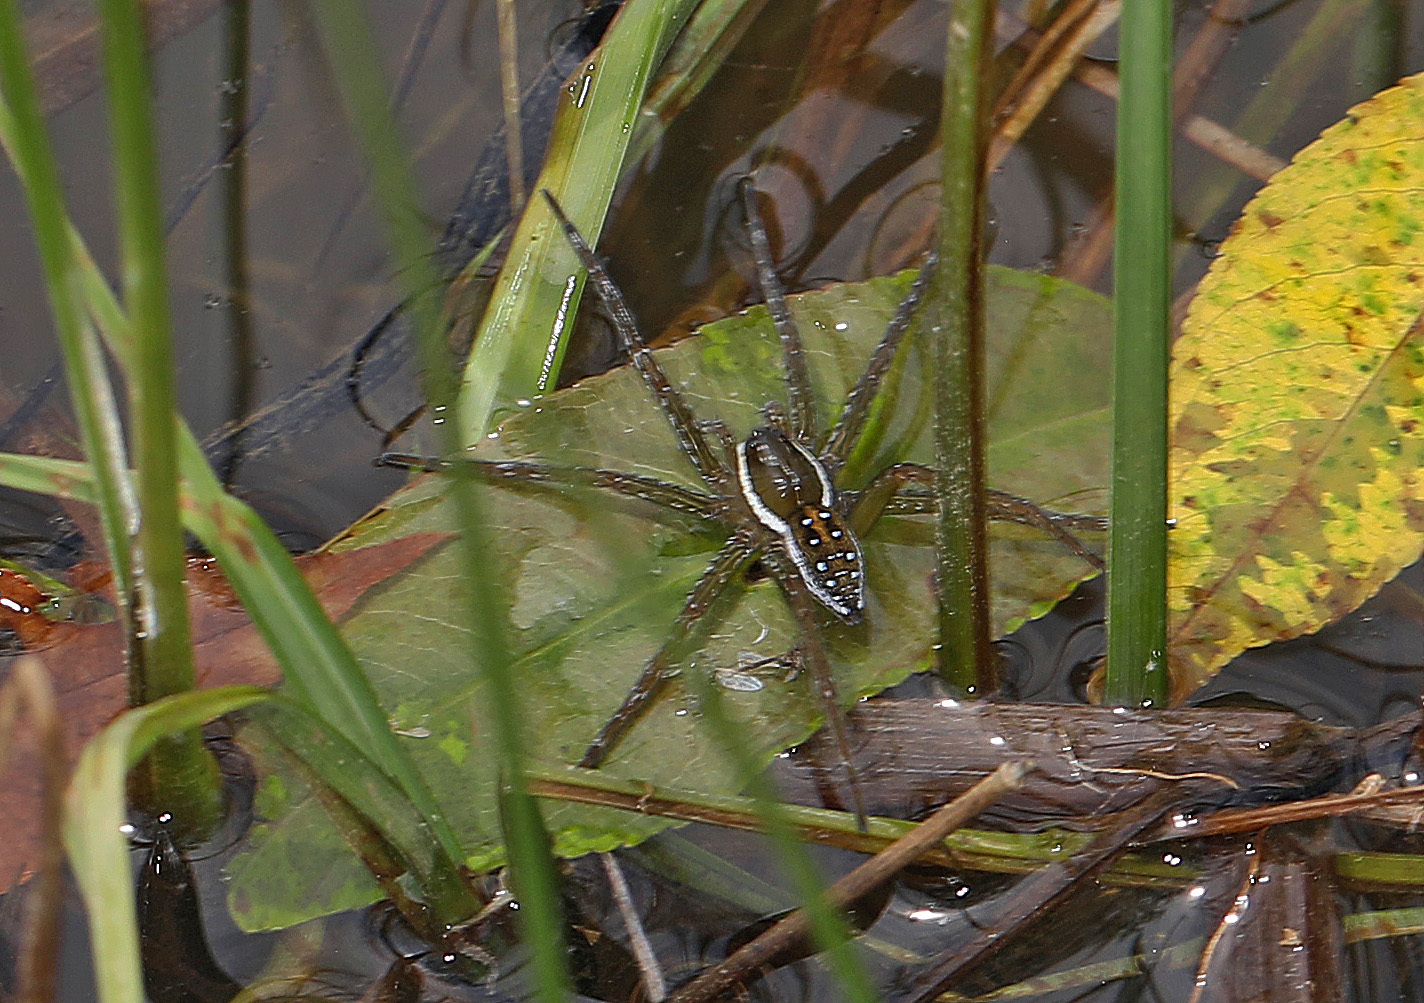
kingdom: Animalia
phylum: Arthropoda
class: Arachnida
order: Araneae
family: Pisauridae
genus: Dolomedes
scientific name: Dolomedes triton
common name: Six-spotted fishing spider
